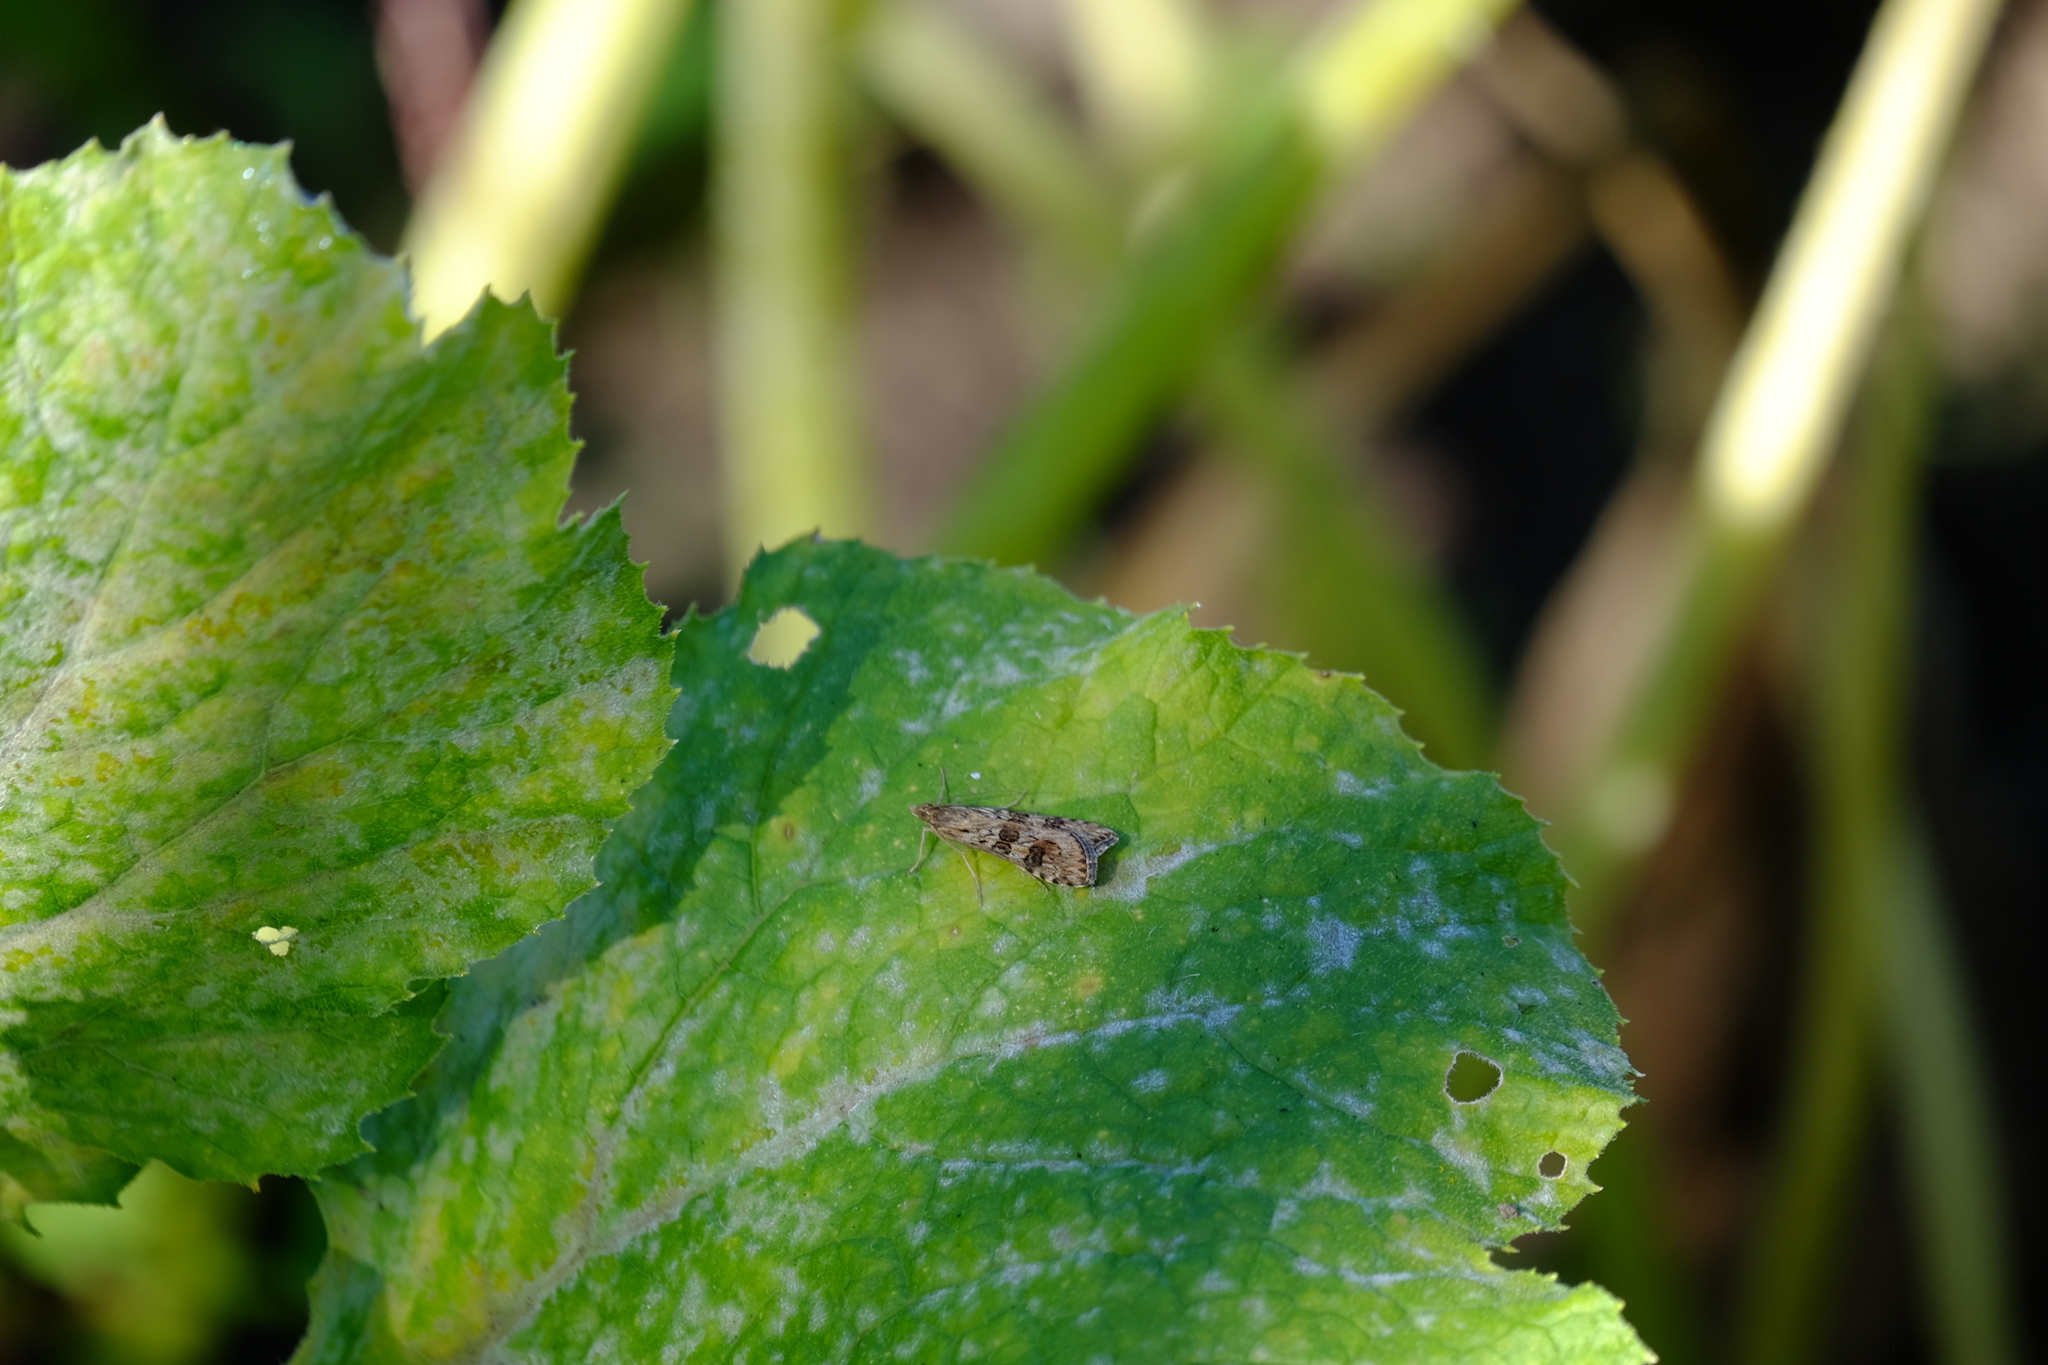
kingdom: Animalia
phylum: Arthropoda
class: Insecta
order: Lepidoptera
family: Crambidae
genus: Nomophila
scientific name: Nomophila noctuella
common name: Rush veneer
